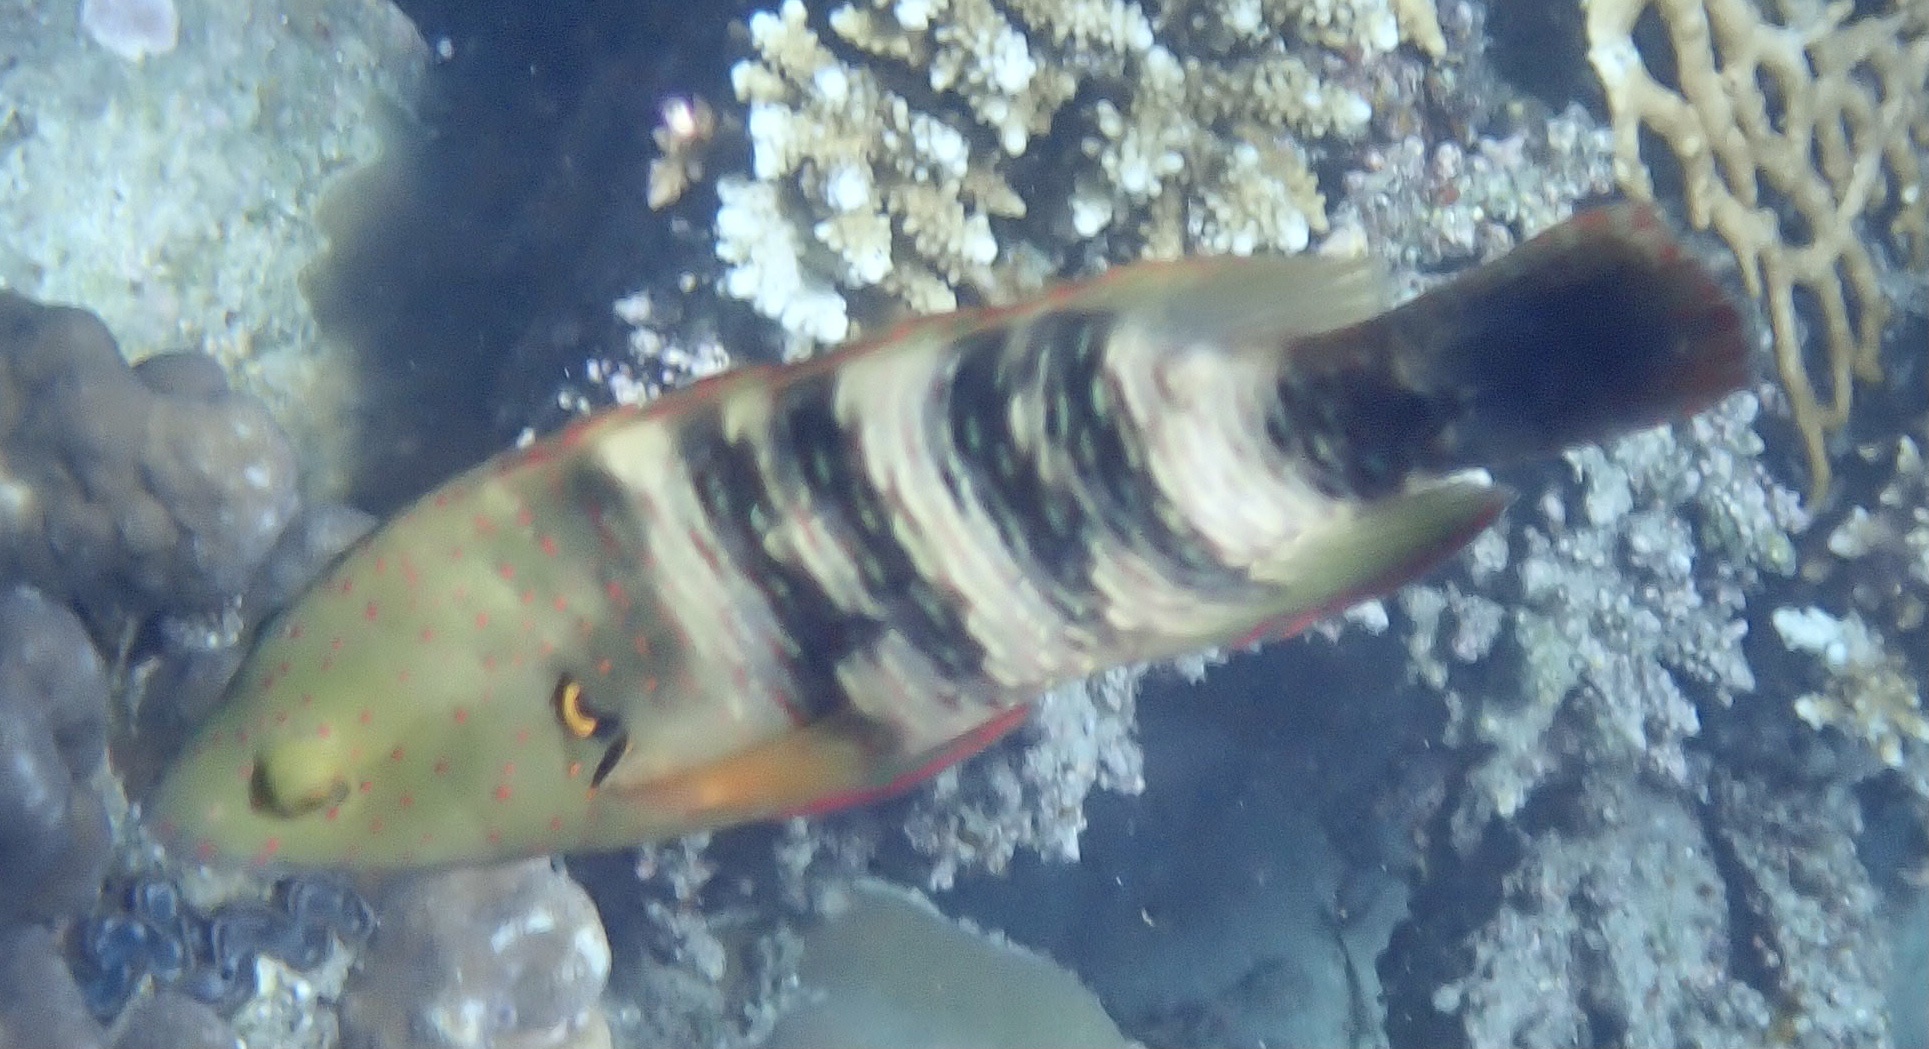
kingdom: Animalia
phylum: Chordata
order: Perciformes
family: Labridae
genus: Cheilinus
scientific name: Cheilinus lunulatus
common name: Broomtail wrasse
